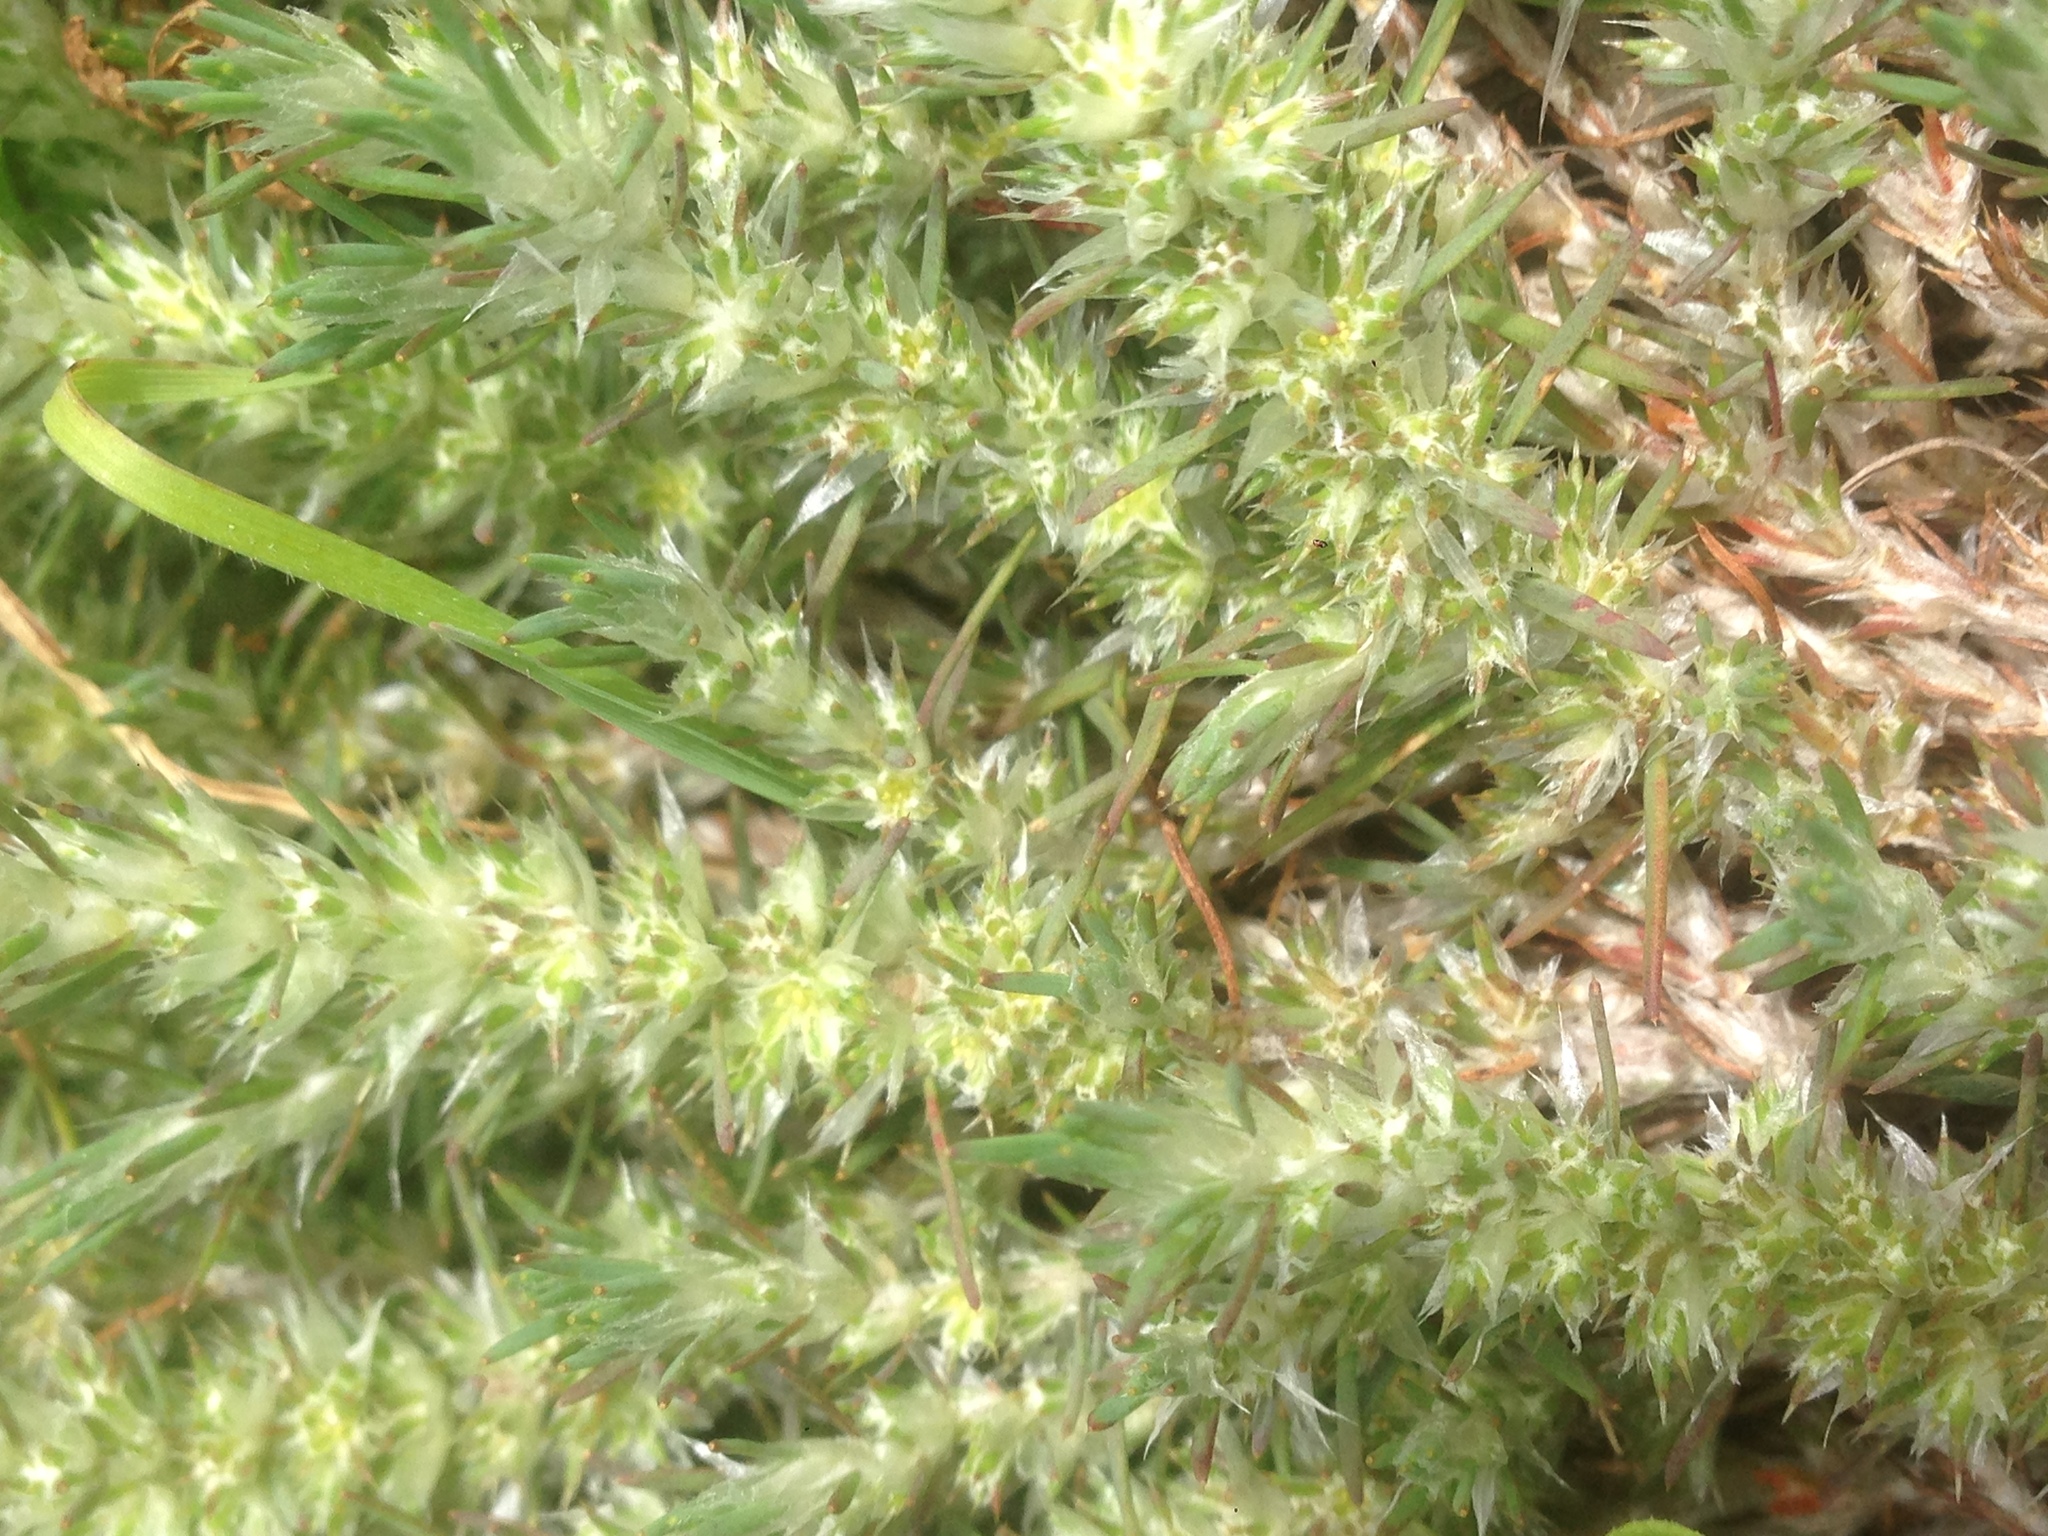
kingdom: Plantae
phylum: Tracheophyta
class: Magnoliopsida
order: Caryophyllales
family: Caryophyllaceae
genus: Cardionema
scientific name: Cardionema ramosissima
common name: Sandcarpet
